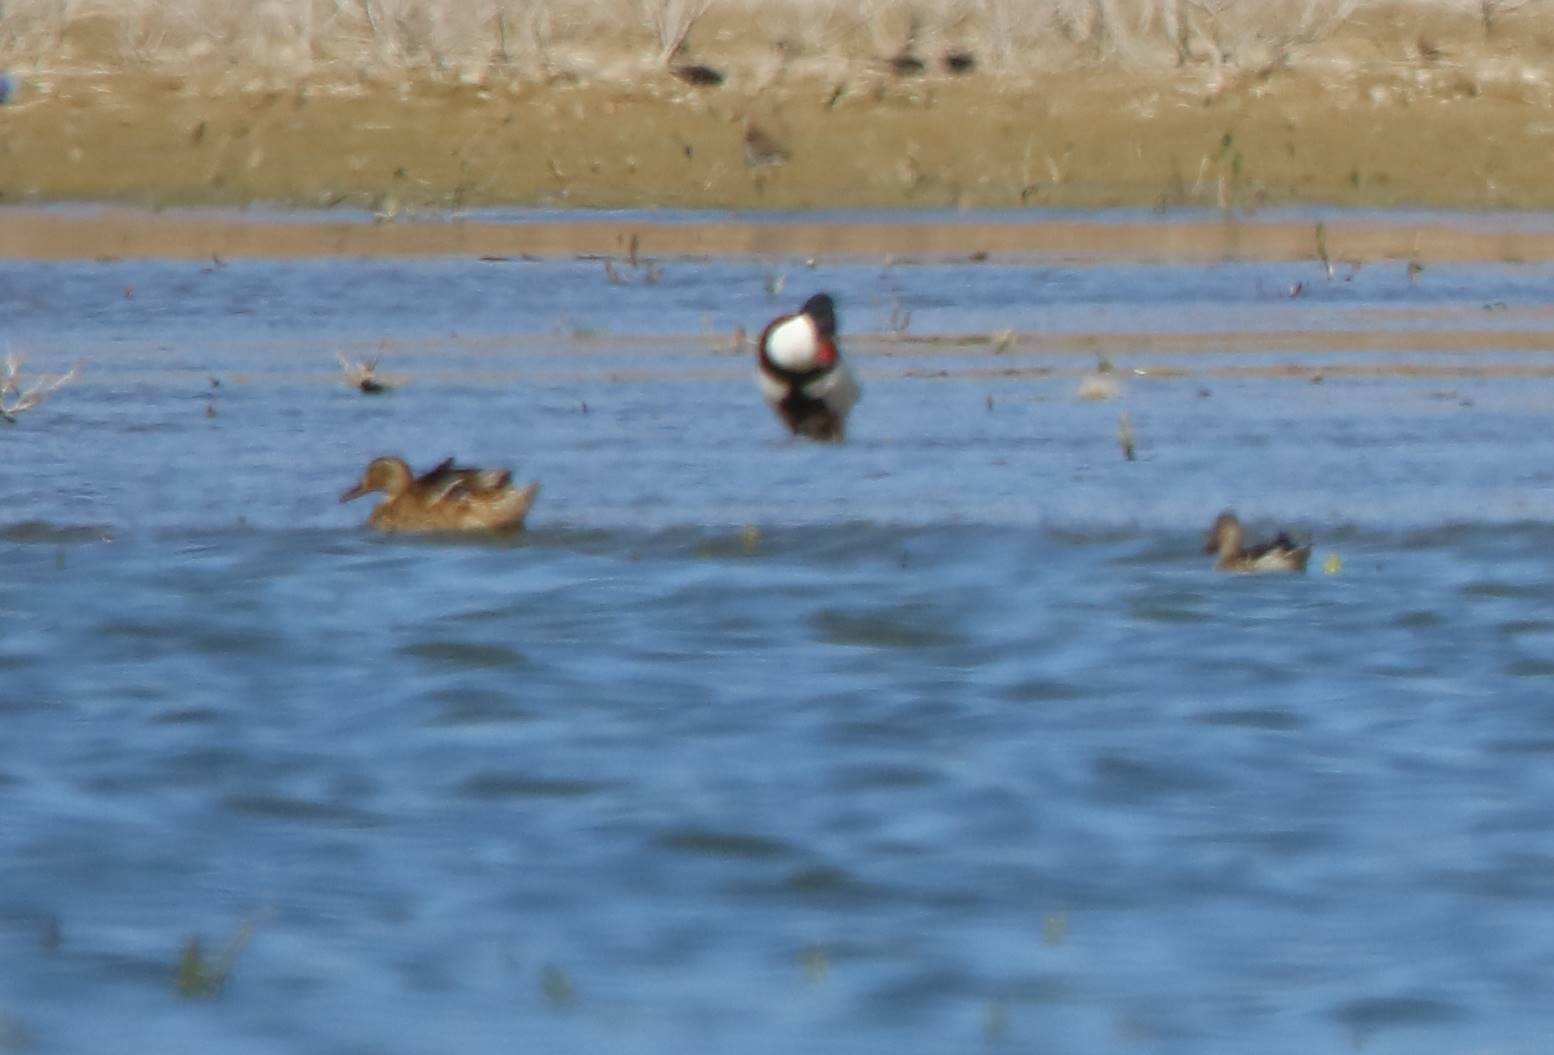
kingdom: Animalia
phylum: Chordata
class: Aves
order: Anseriformes
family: Anatidae
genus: Spatula
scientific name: Spatula clypeata
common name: Northern shoveler
